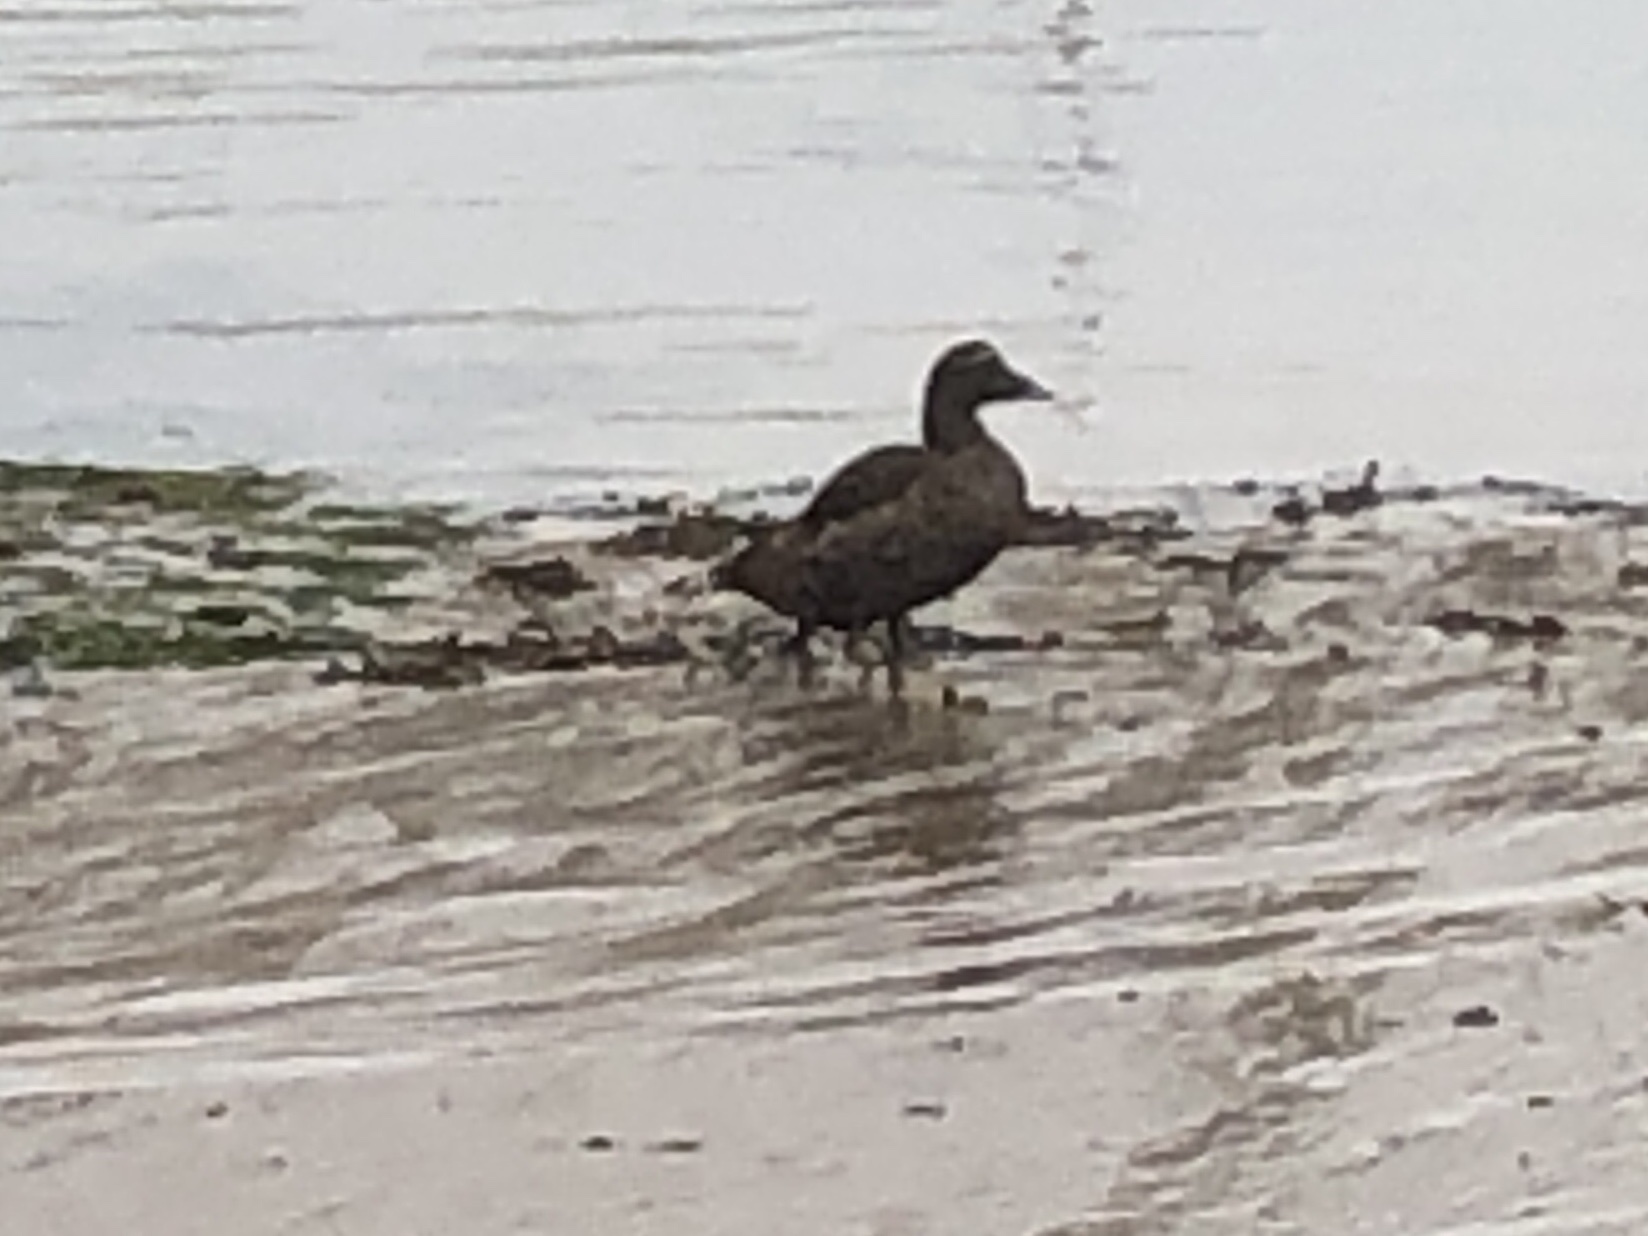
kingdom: Animalia
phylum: Chordata
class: Aves
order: Anseriformes
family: Anatidae
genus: Somateria
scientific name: Somateria mollissima
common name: Common eider
